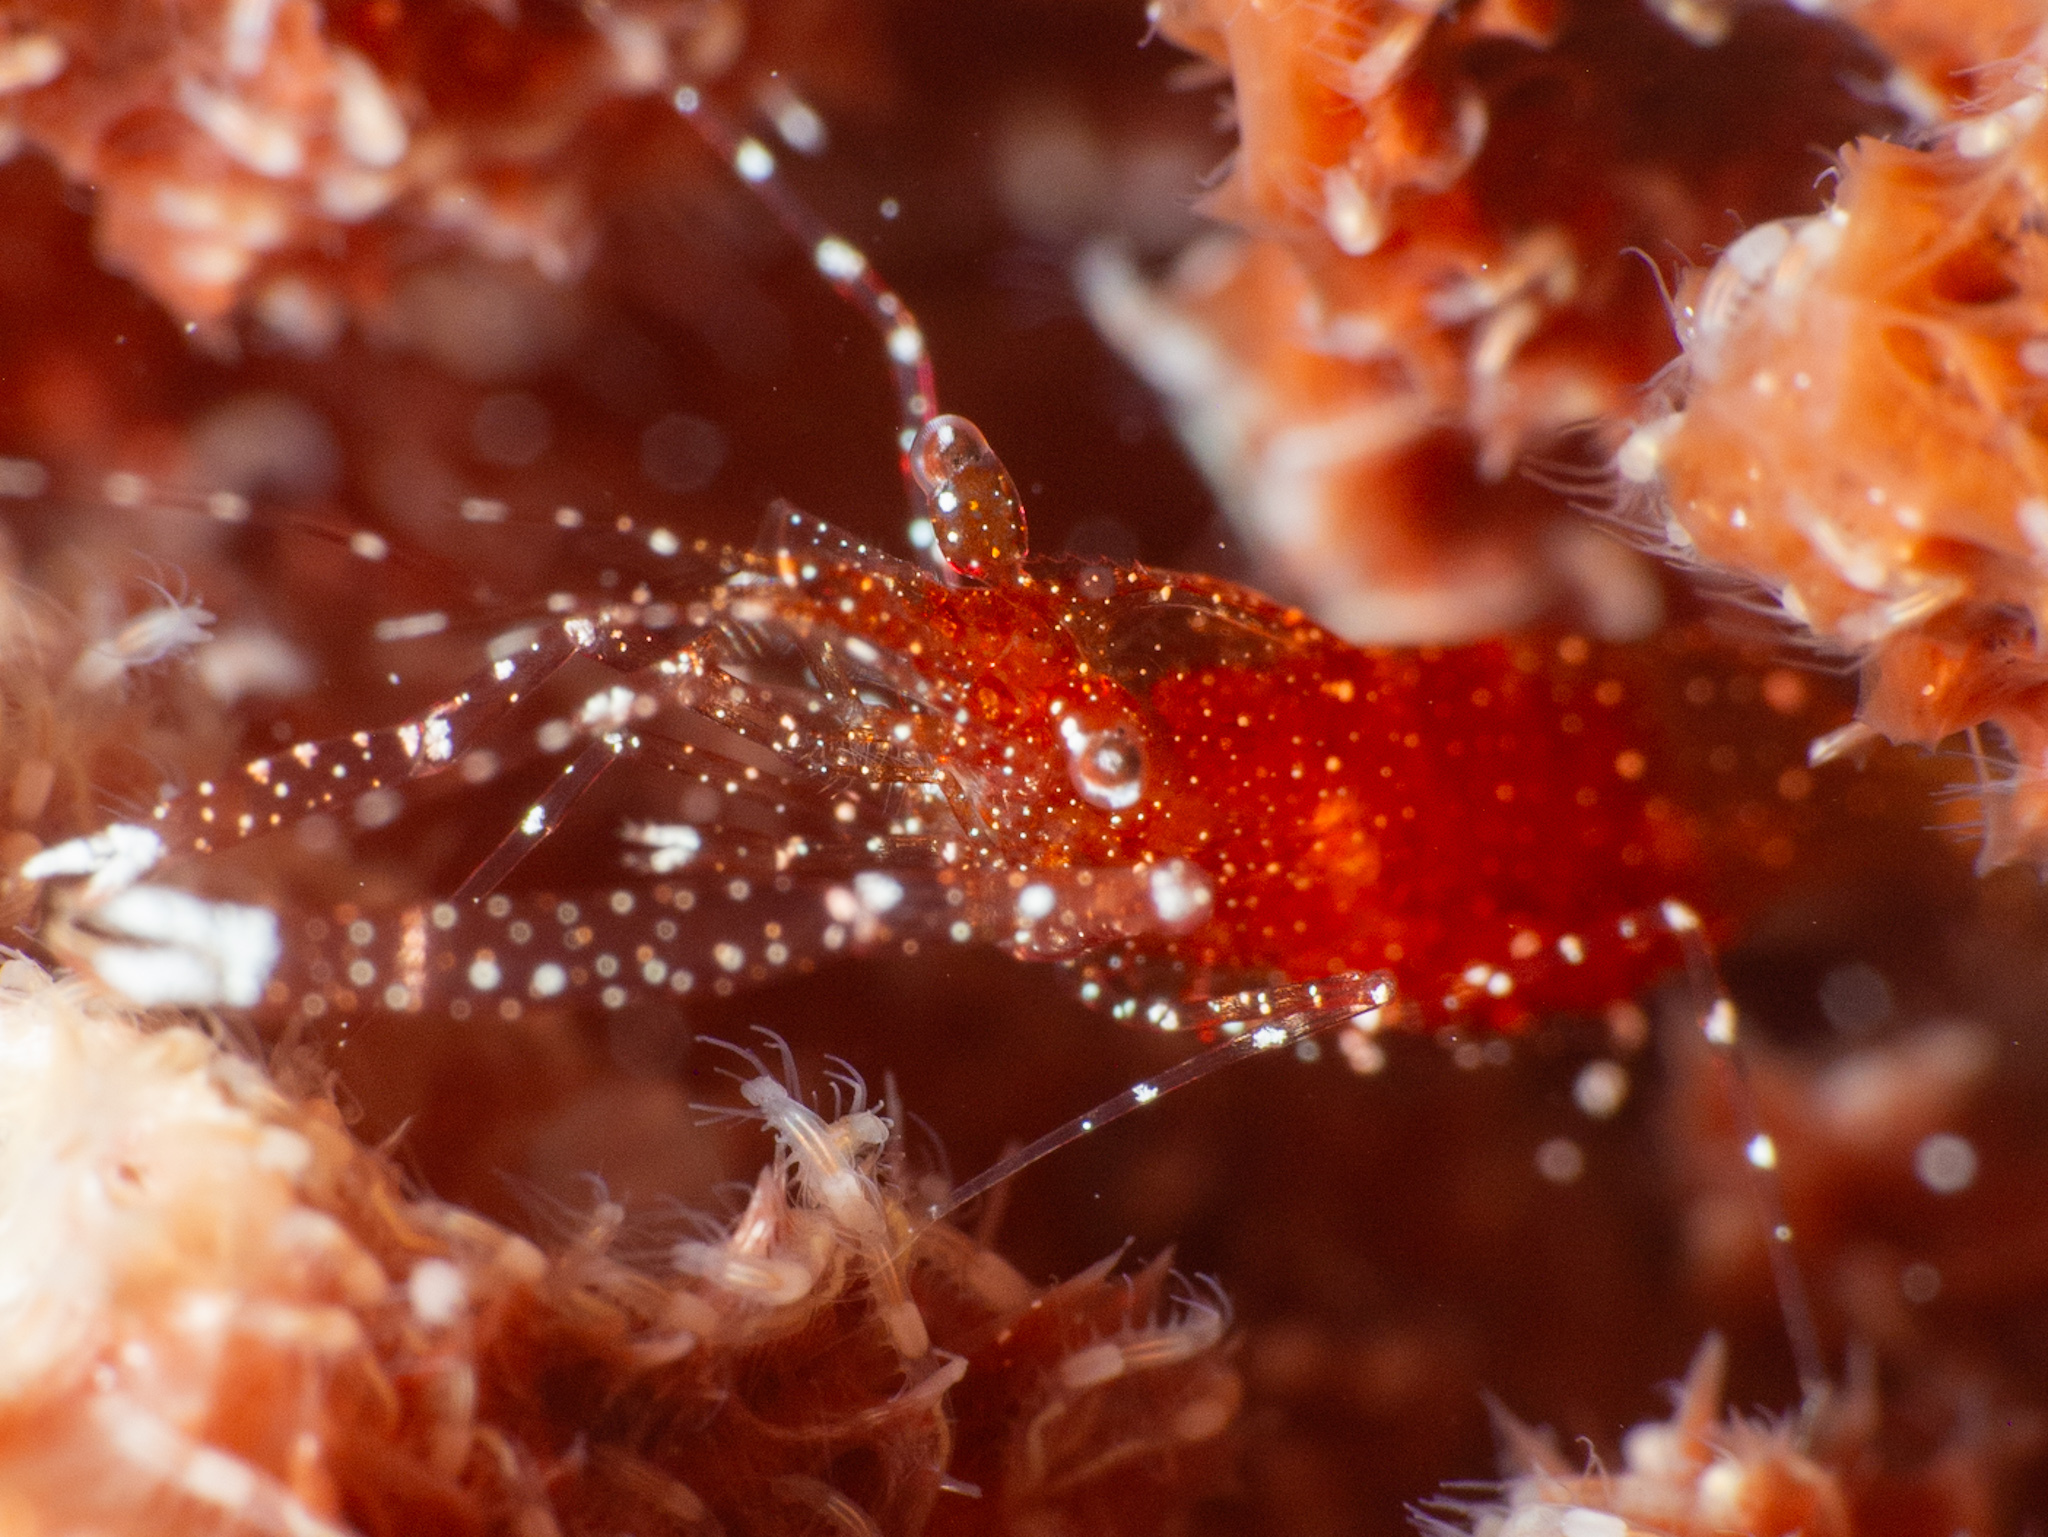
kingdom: Animalia
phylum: Arthropoda
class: Malacostraca
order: Decapoda
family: Palaemonidae
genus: Periclimenes
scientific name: Periclimenes harringtoni
